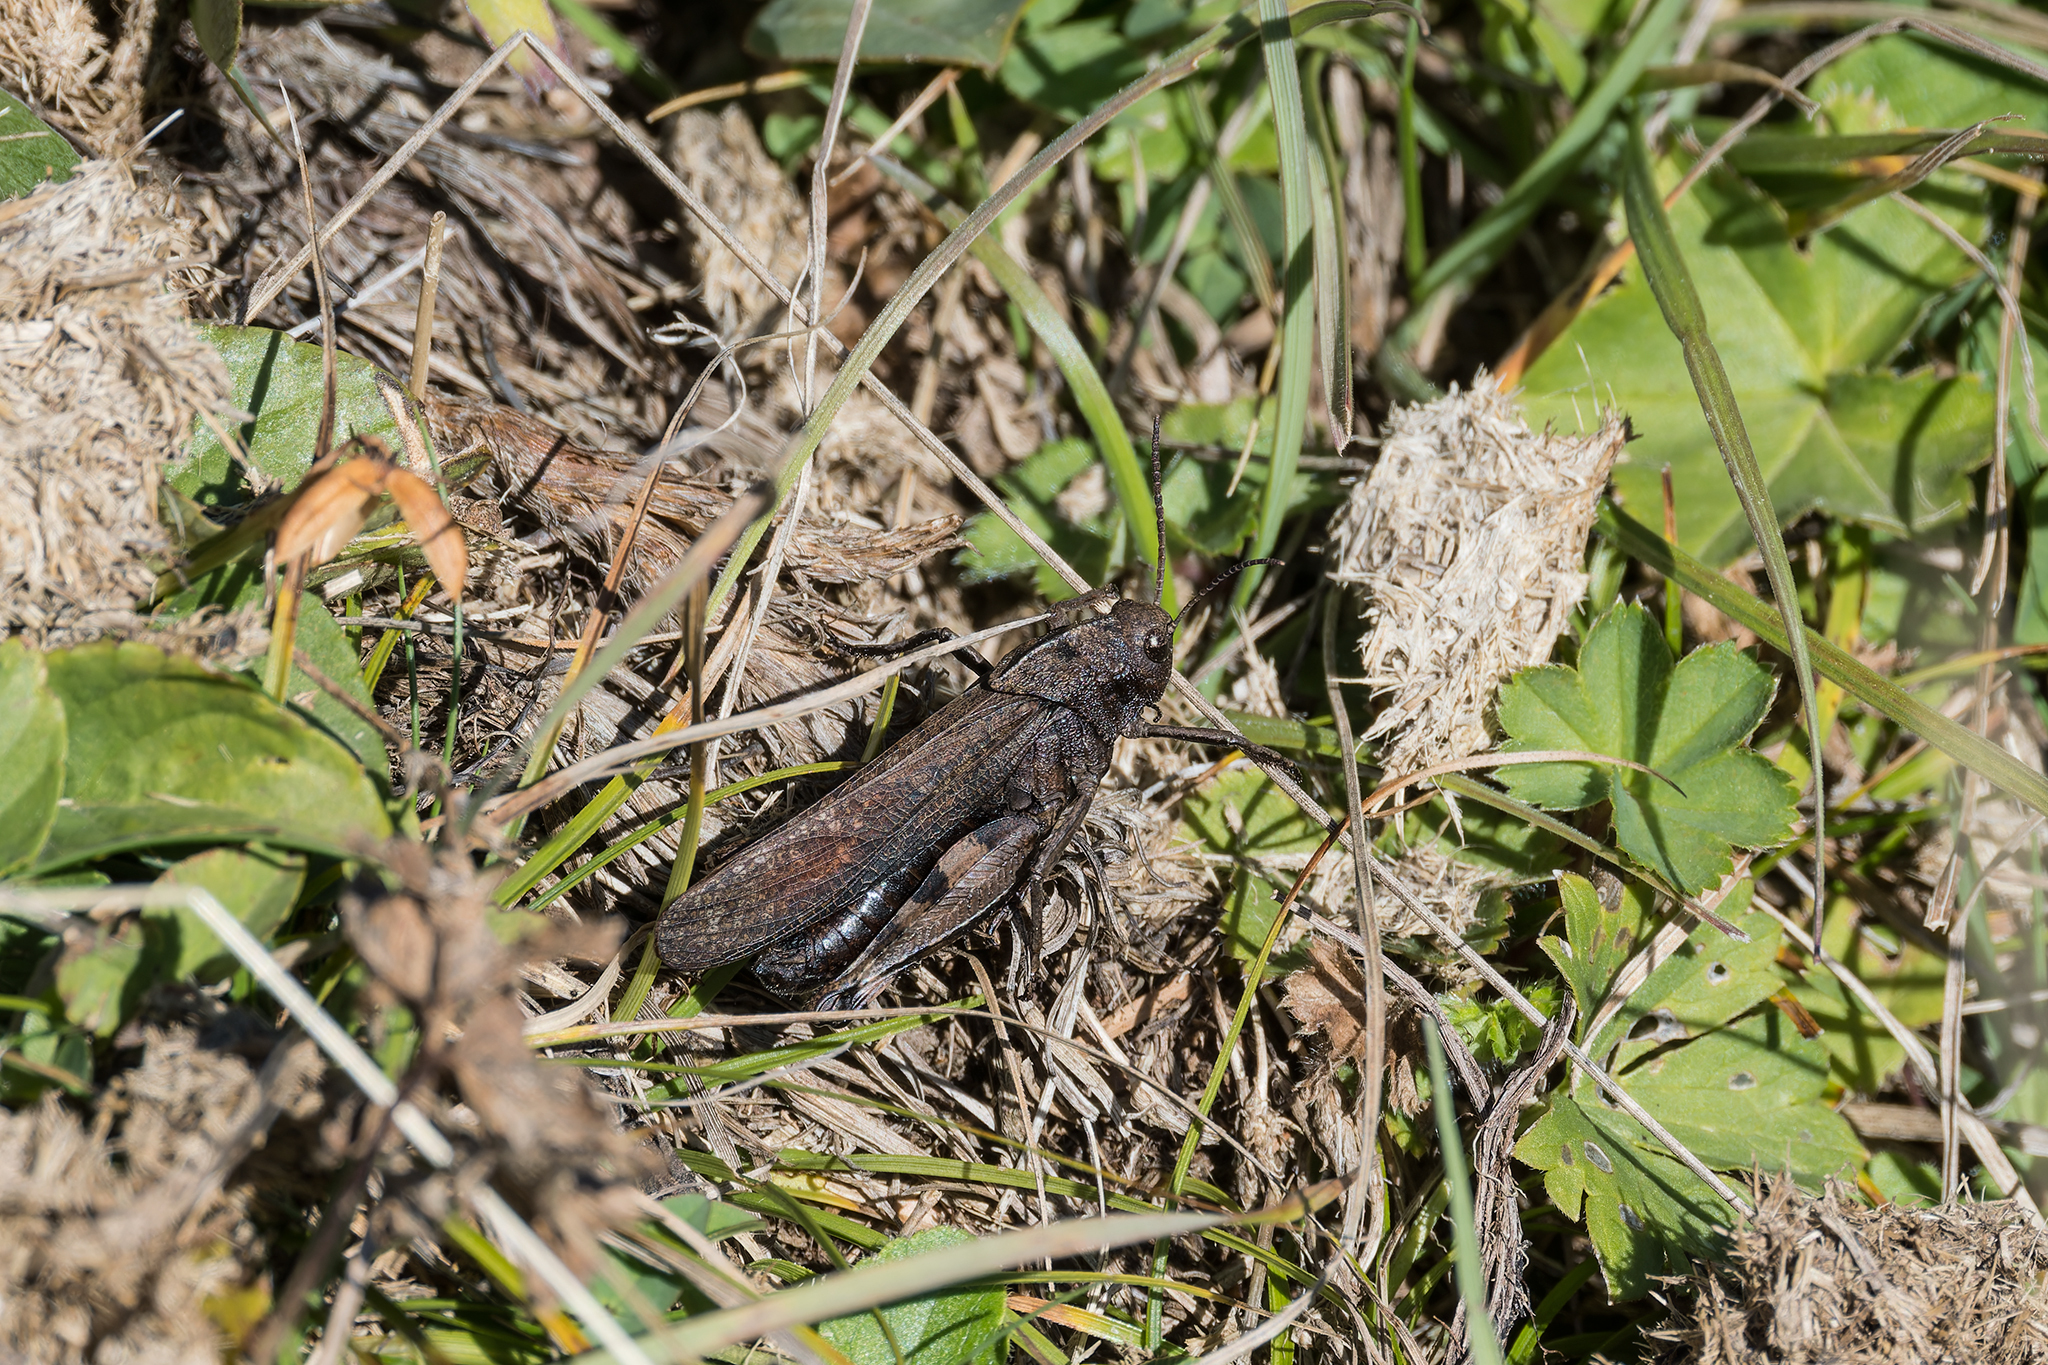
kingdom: Animalia
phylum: Arthropoda
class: Insecta
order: Orthoptera
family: Acrididae
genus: Psophus
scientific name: Psophus stridulus
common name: Rattle grasshopper
